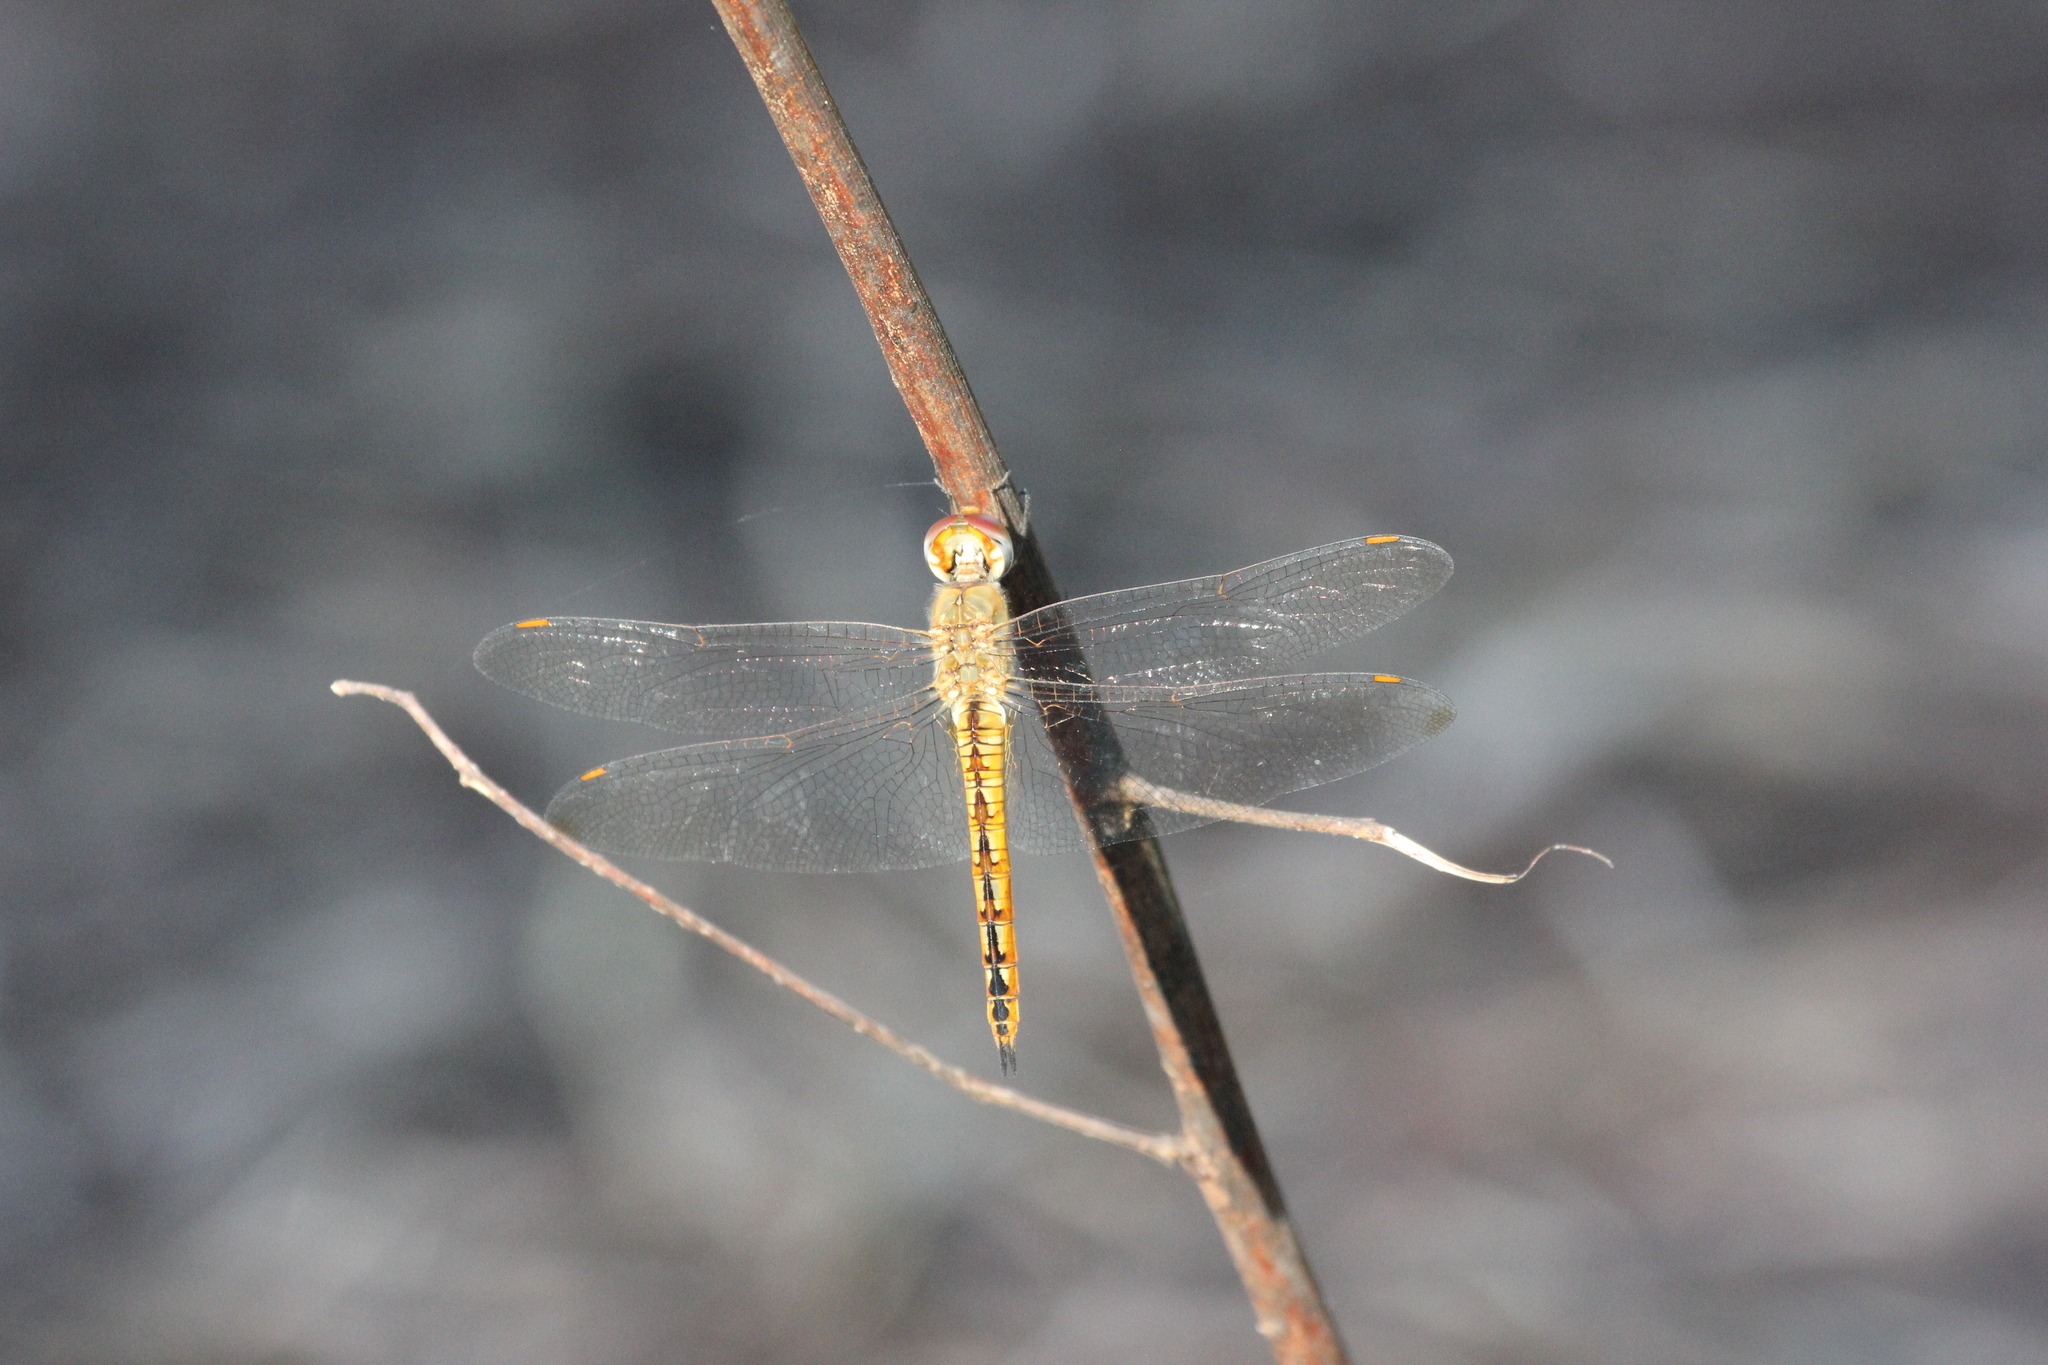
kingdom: Animalia
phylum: Arthropoda
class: Insecta
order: Odonata
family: Libellulidae
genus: Pantala
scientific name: Pantala flavescens
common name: Wandering glider
